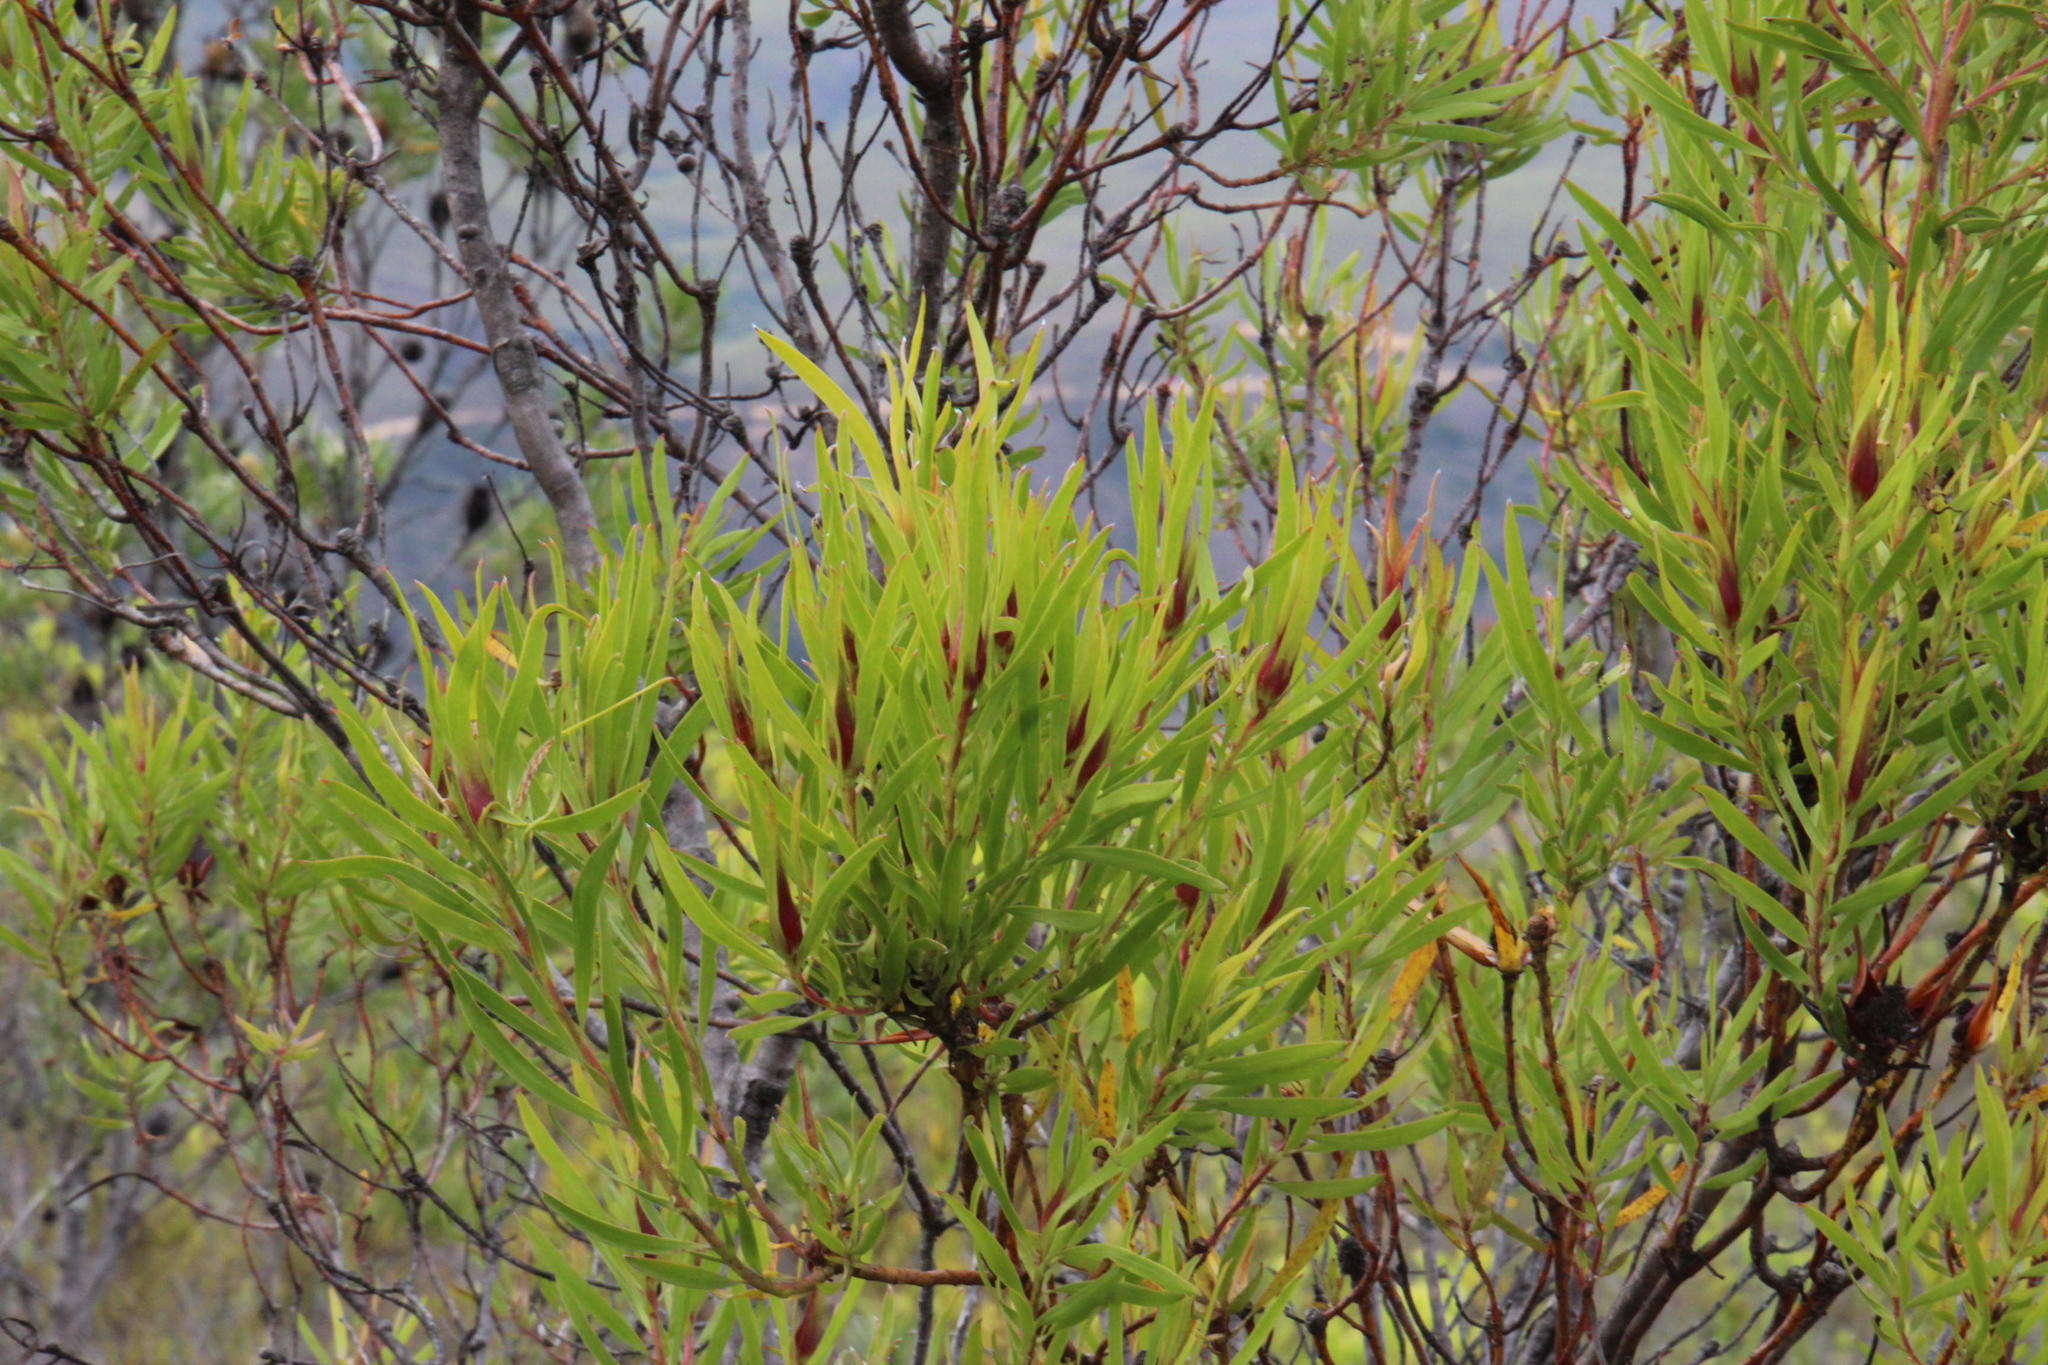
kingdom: Plantae
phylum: Tracheophyta
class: Magnoliopsida
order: Proteales
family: Proteaceae
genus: Leucadendron
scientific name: Leucadendron eucalyptifolium
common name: Gum-leaved conebush
